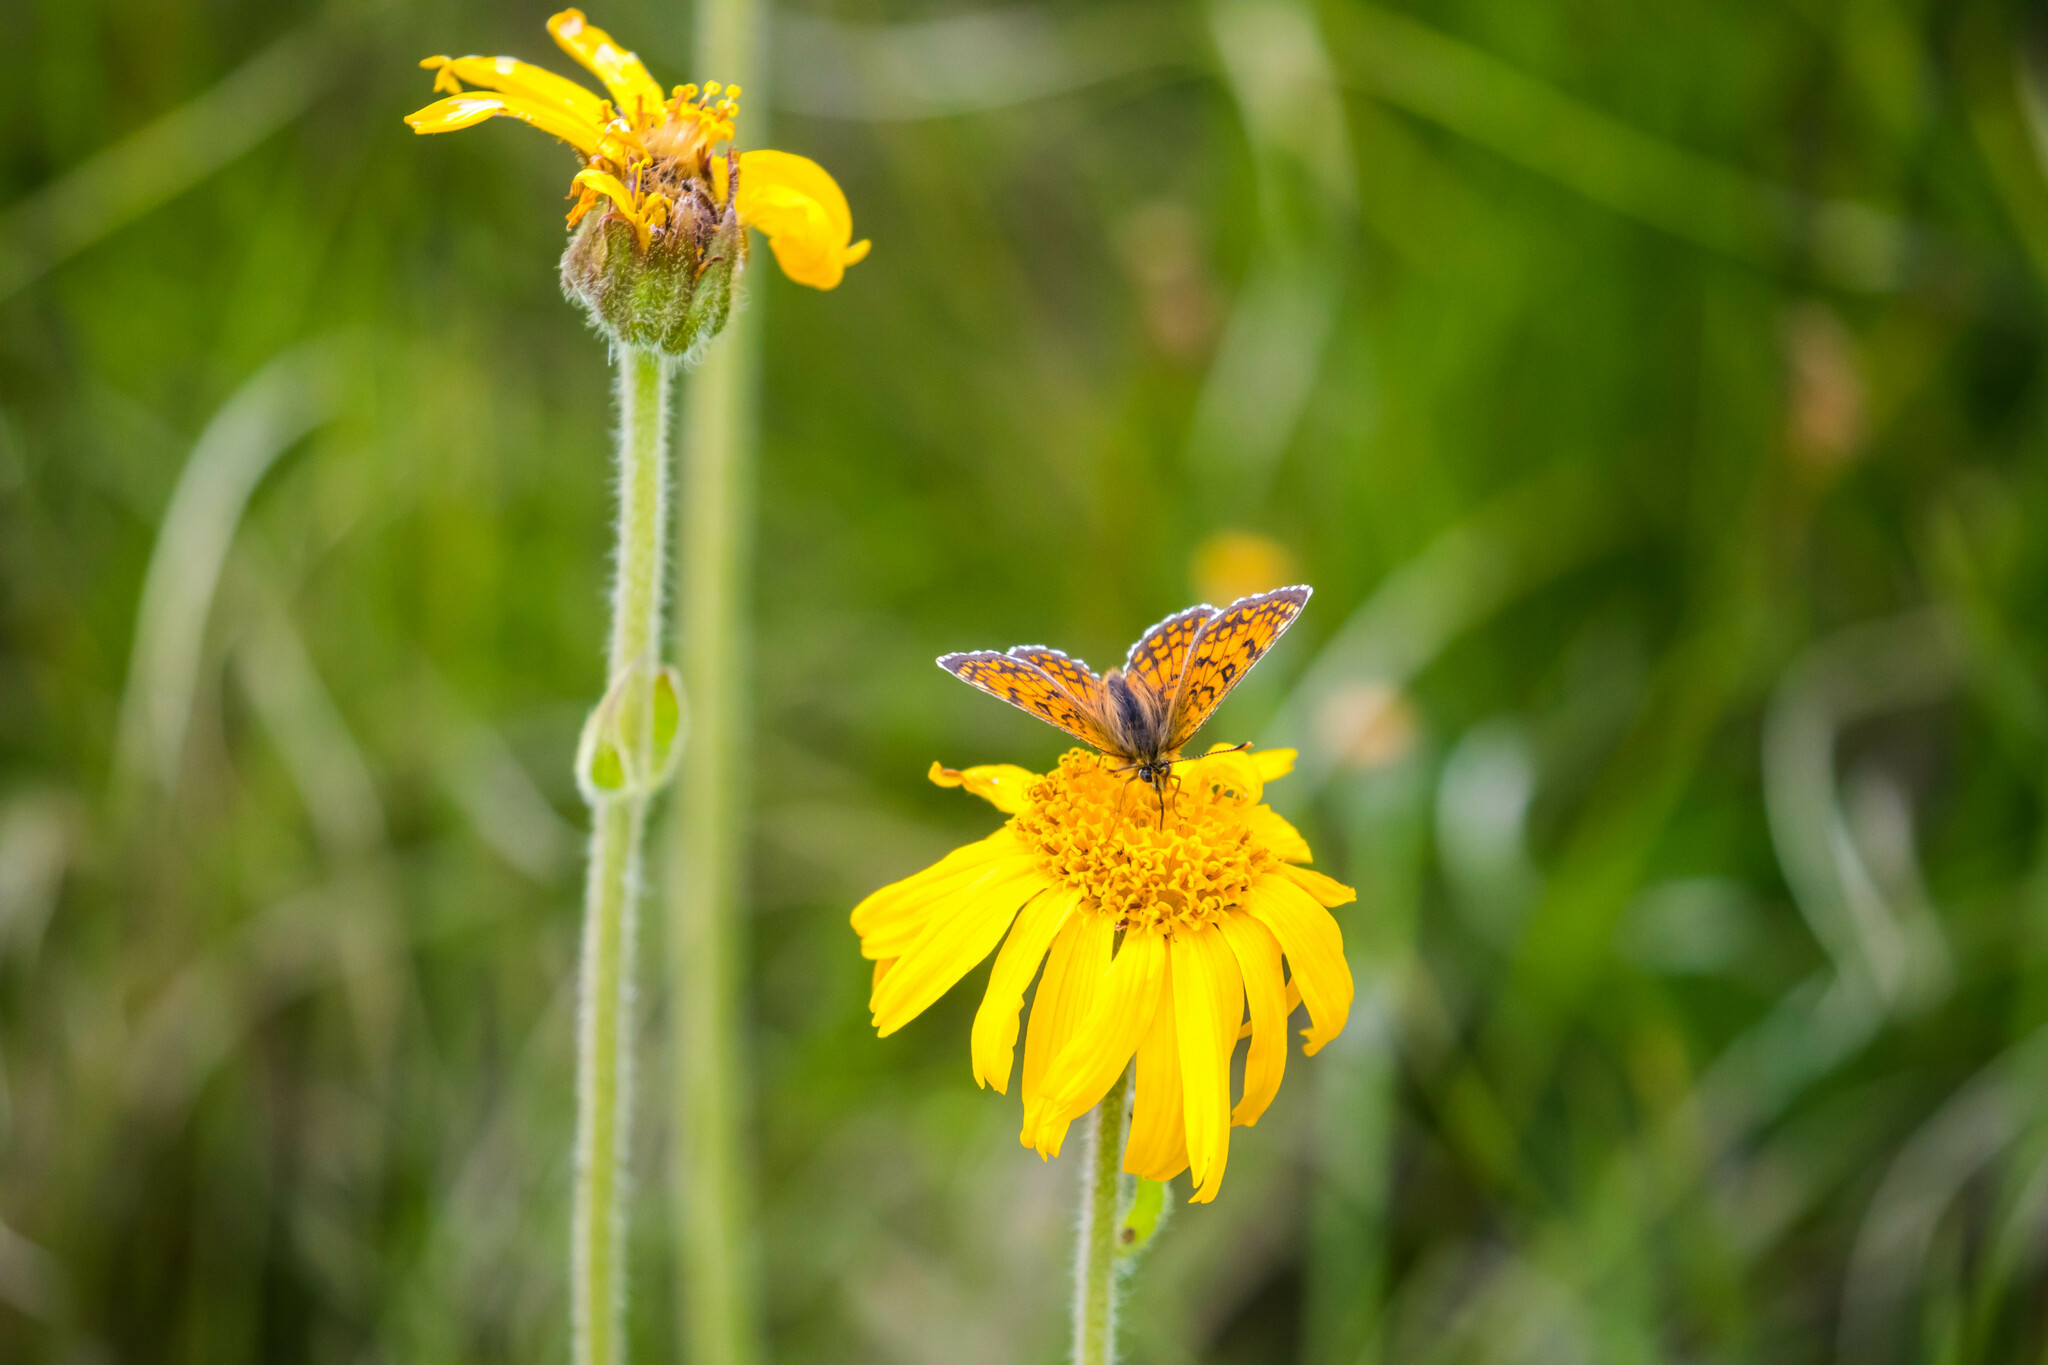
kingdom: Animalia
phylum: Arthropoda
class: Insecta
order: Lepidoptera
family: Nymphalidae
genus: Melitaea
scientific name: Melitaea varia
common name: Grisons fritillary
